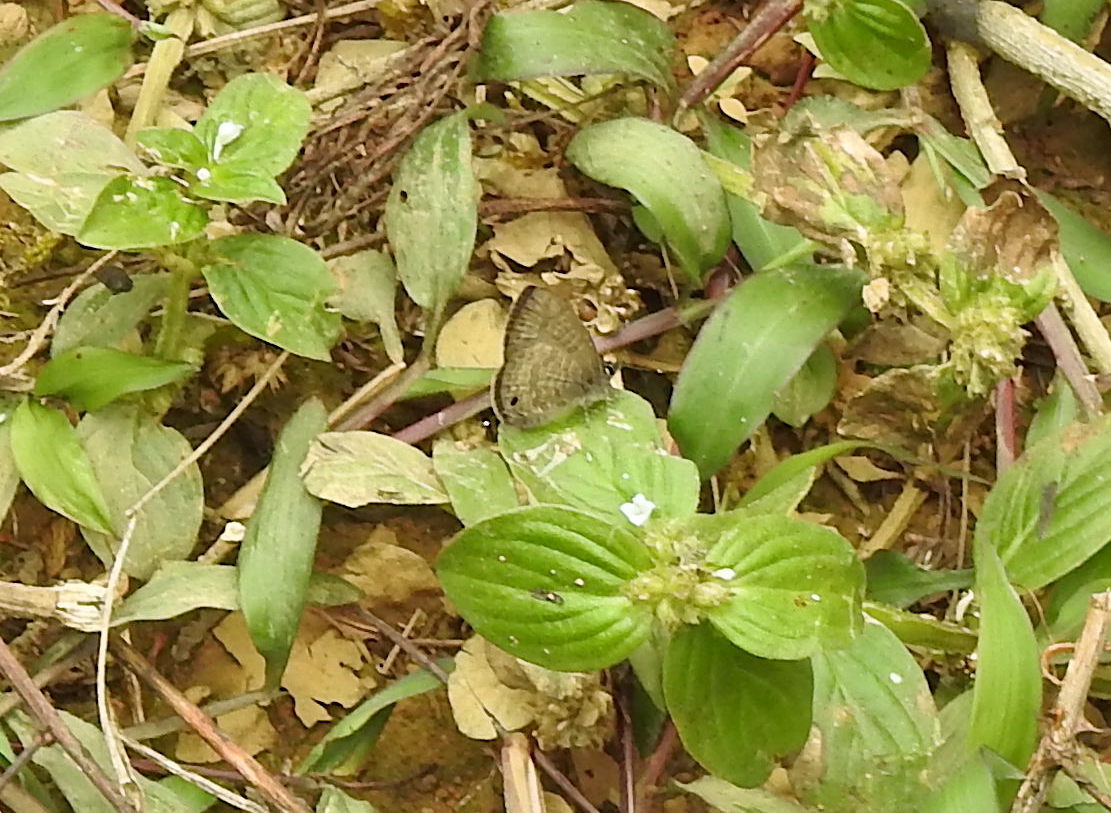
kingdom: Animalia
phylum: Arthropoda
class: Insecta
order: Lepidoptera
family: Lycaenidae
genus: Prosotas
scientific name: Prosotas nora
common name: Common line blue
